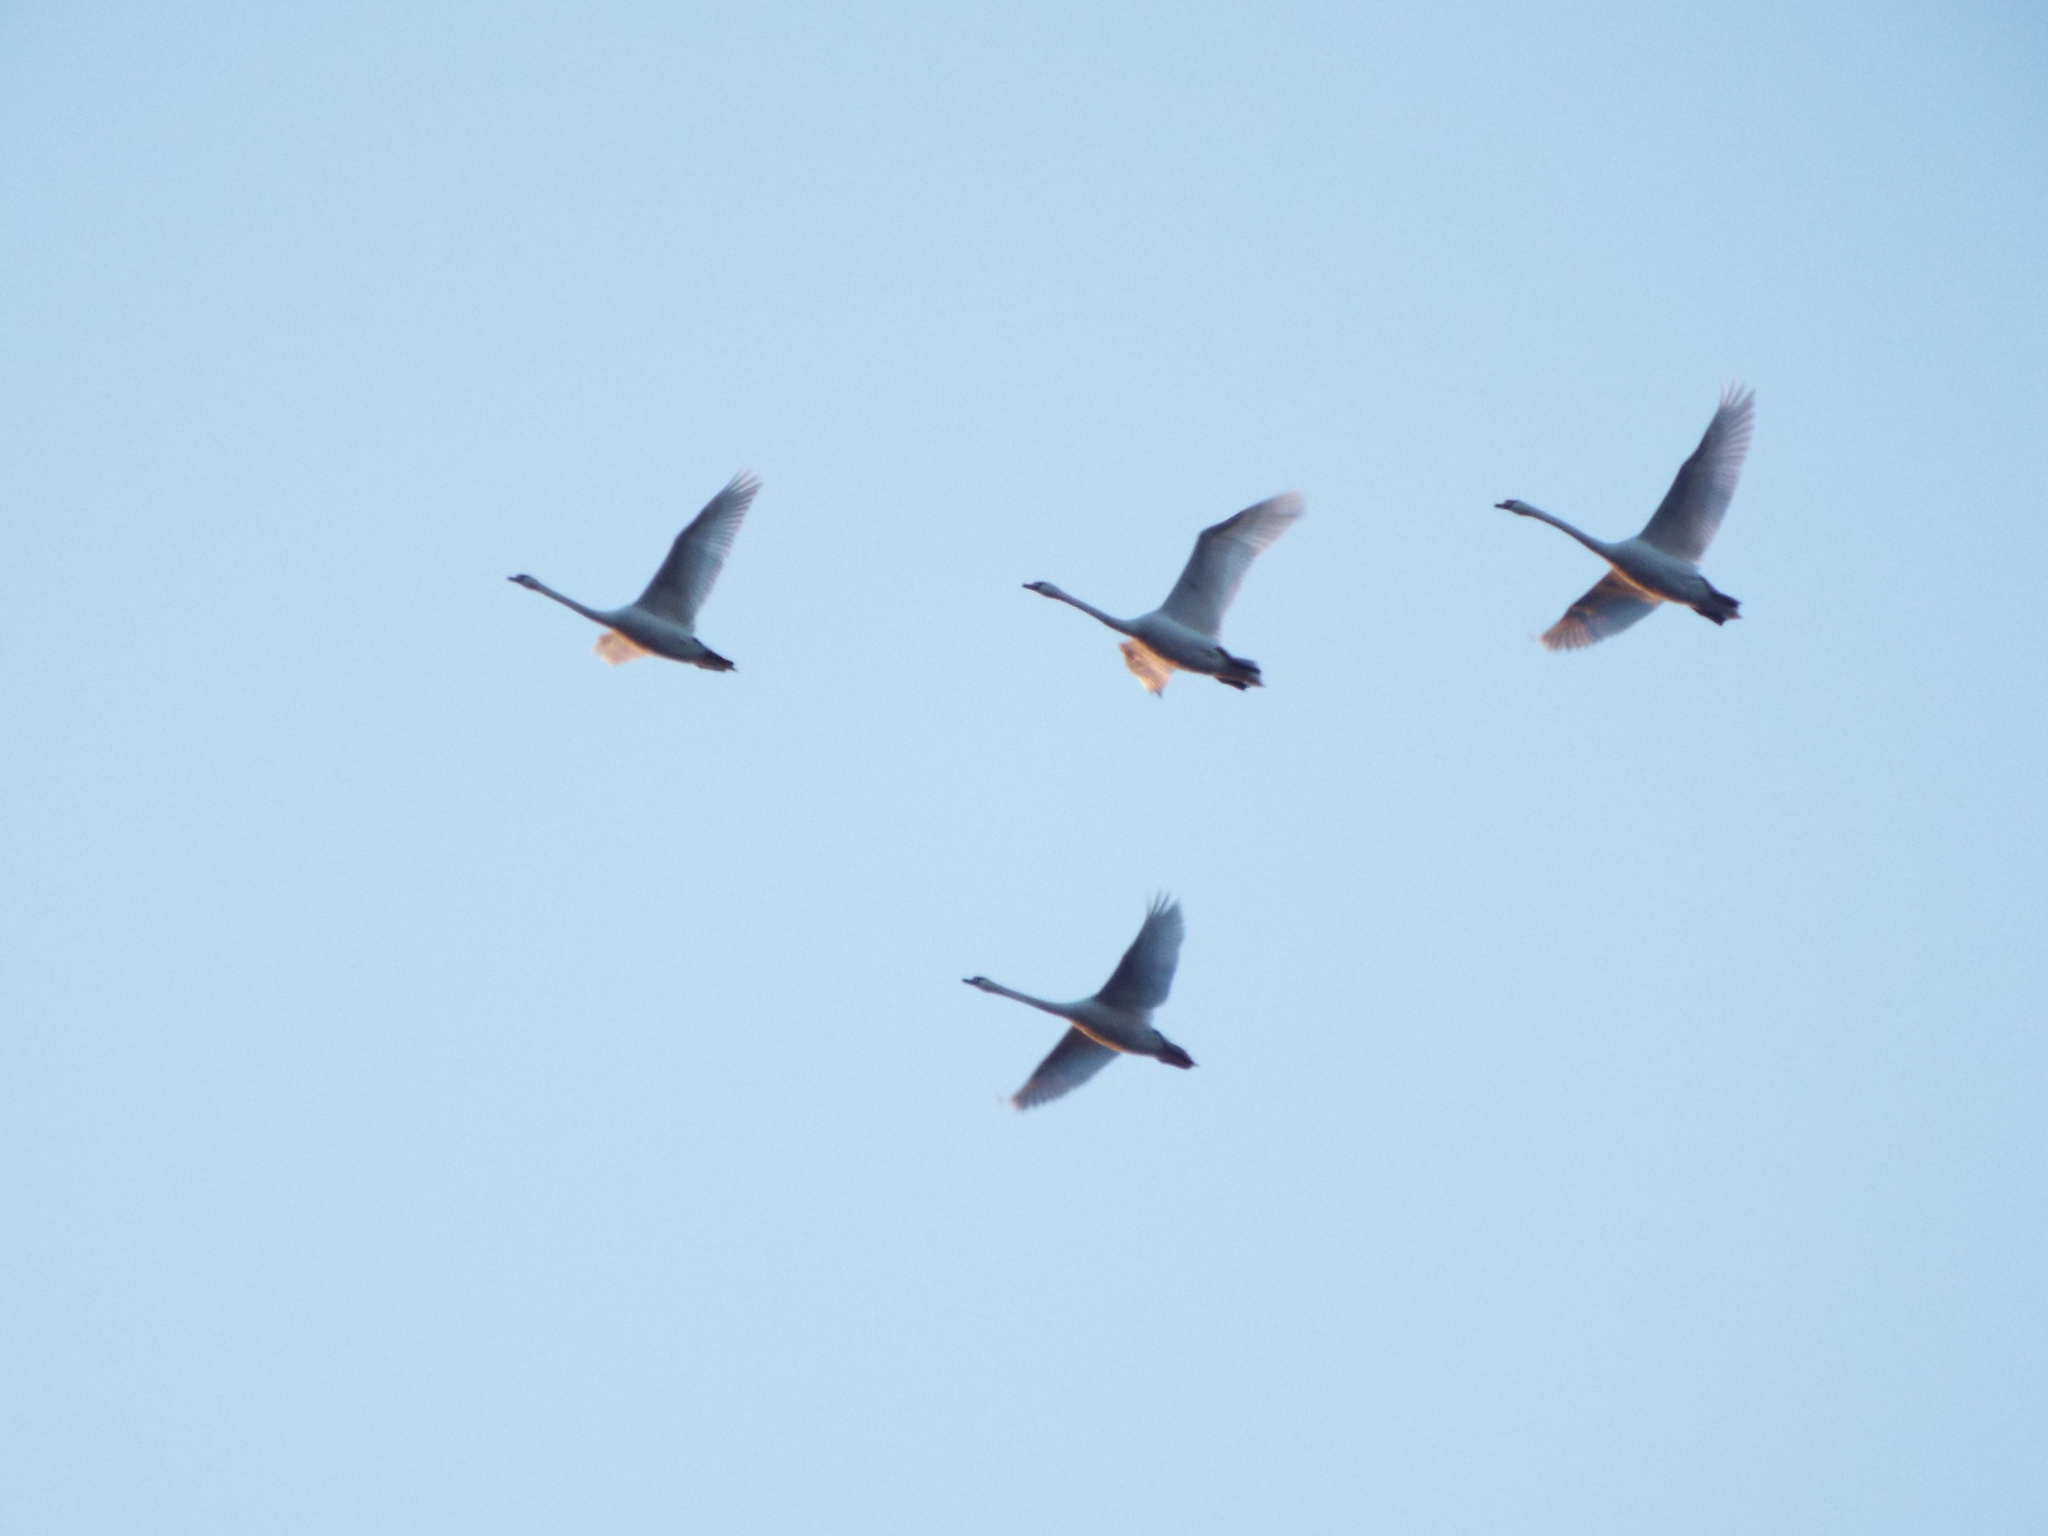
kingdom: Animalia
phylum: Chordata
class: Aves
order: Anseriformes
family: Anatidae
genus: Cygnus
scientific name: Cygnus olor
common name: Mute swan
